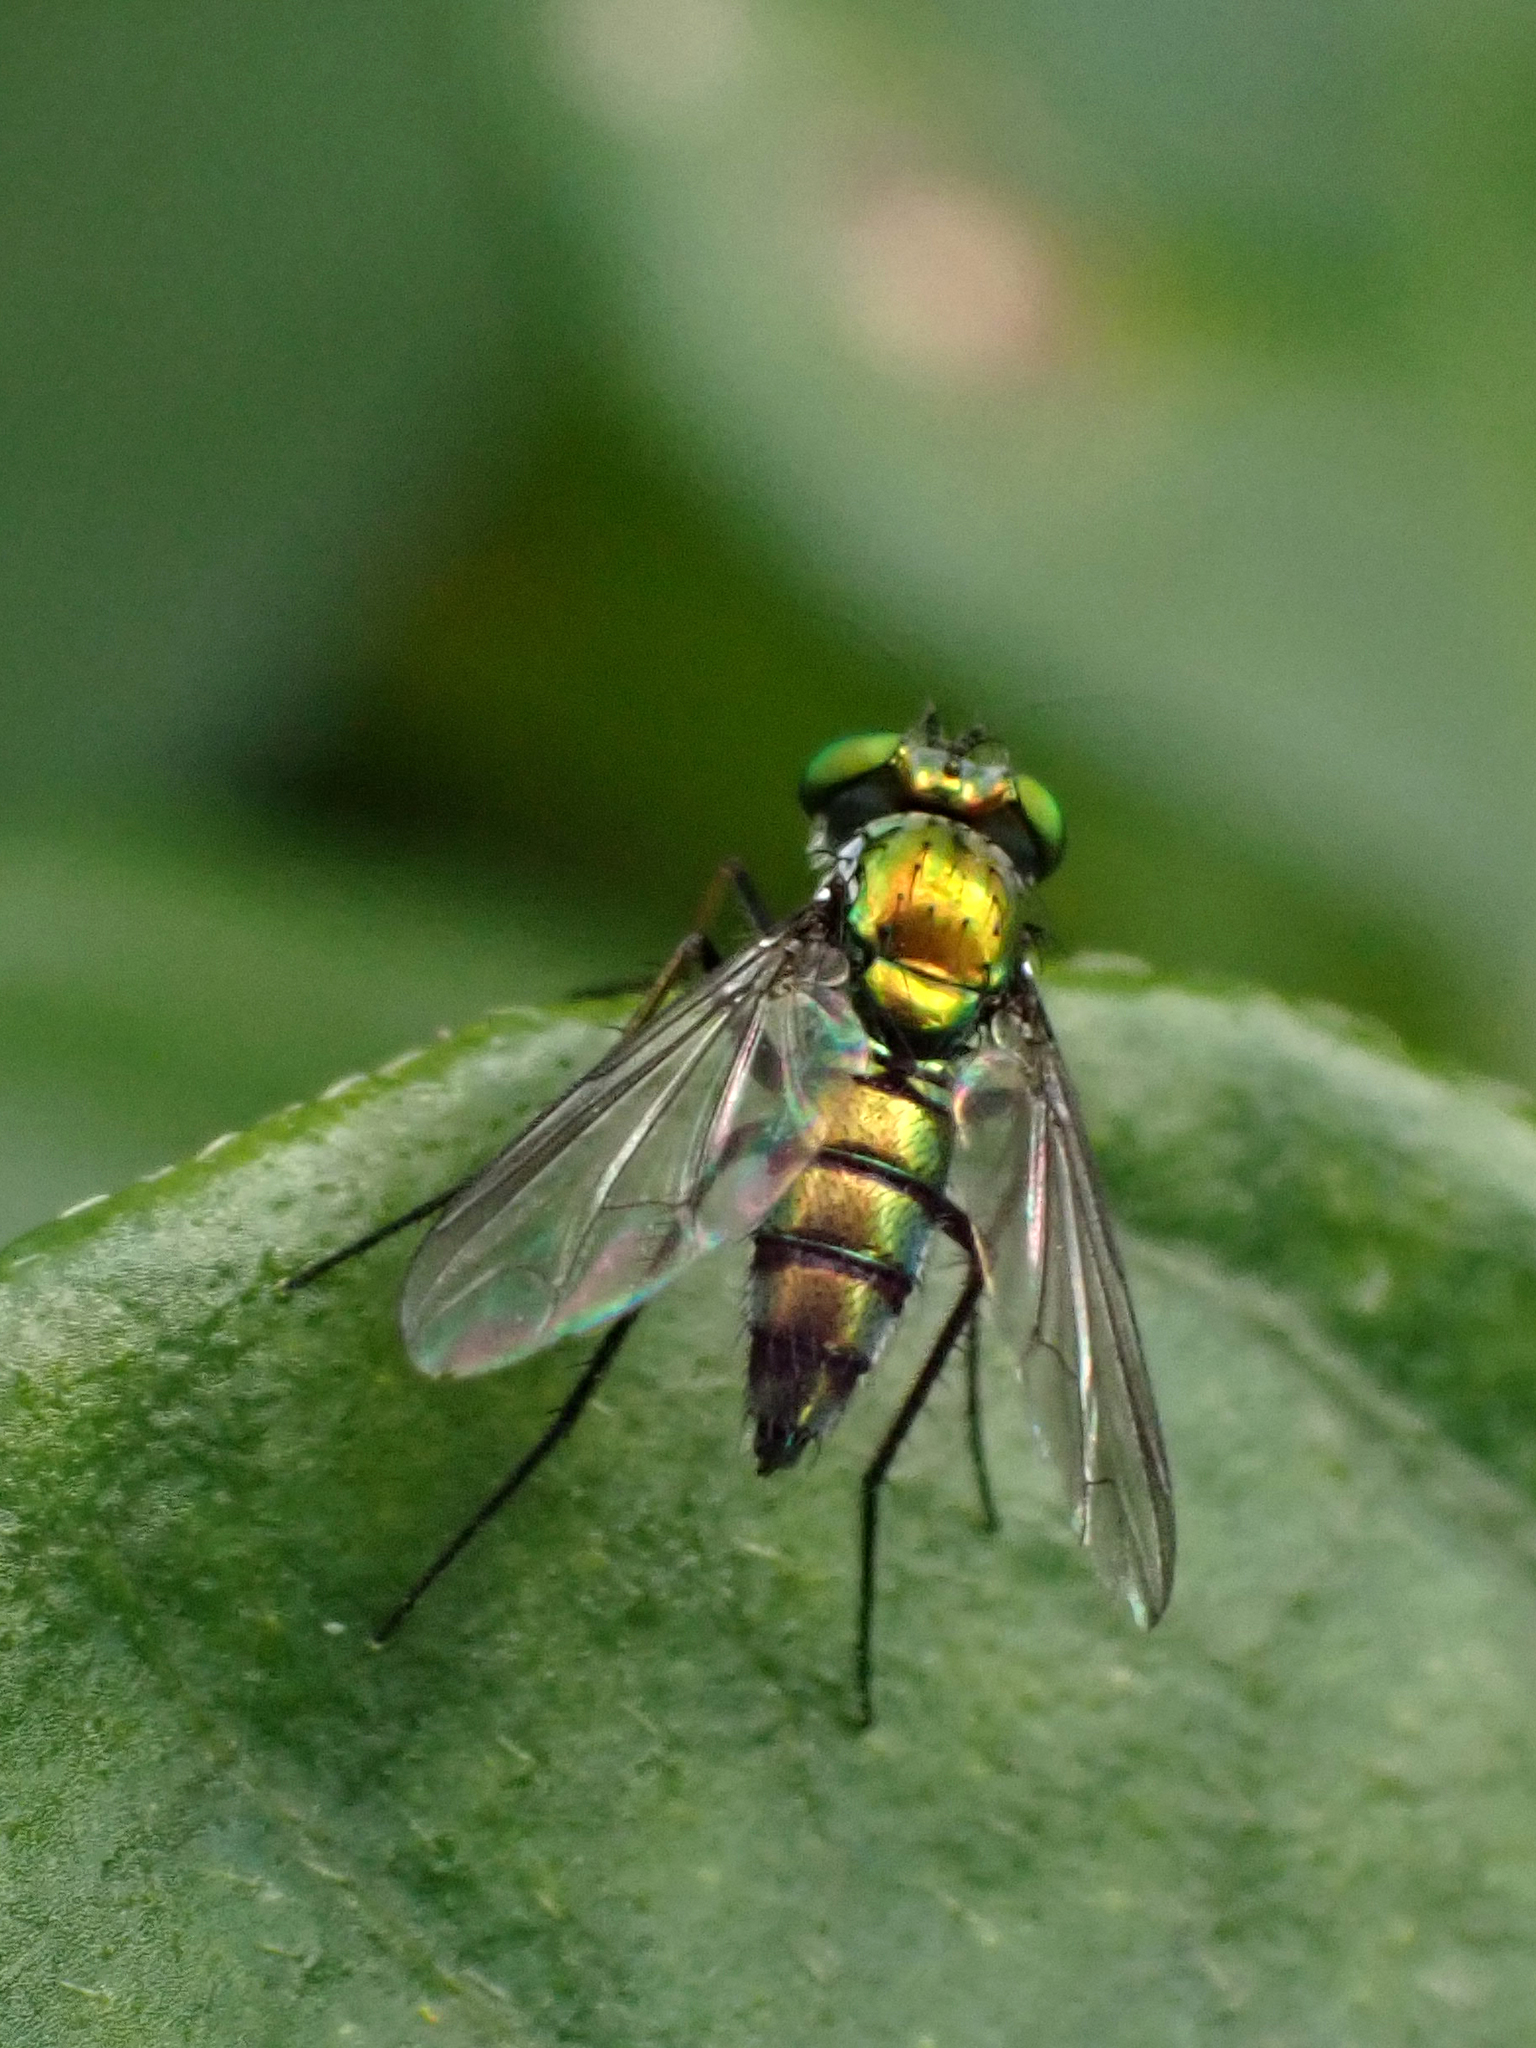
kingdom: Animalia
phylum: Arthropoda
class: Insecta
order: Diptera
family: Dolichopodidae
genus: Condylostylus
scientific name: Condylostylus longicornis
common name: Long-legged fly
